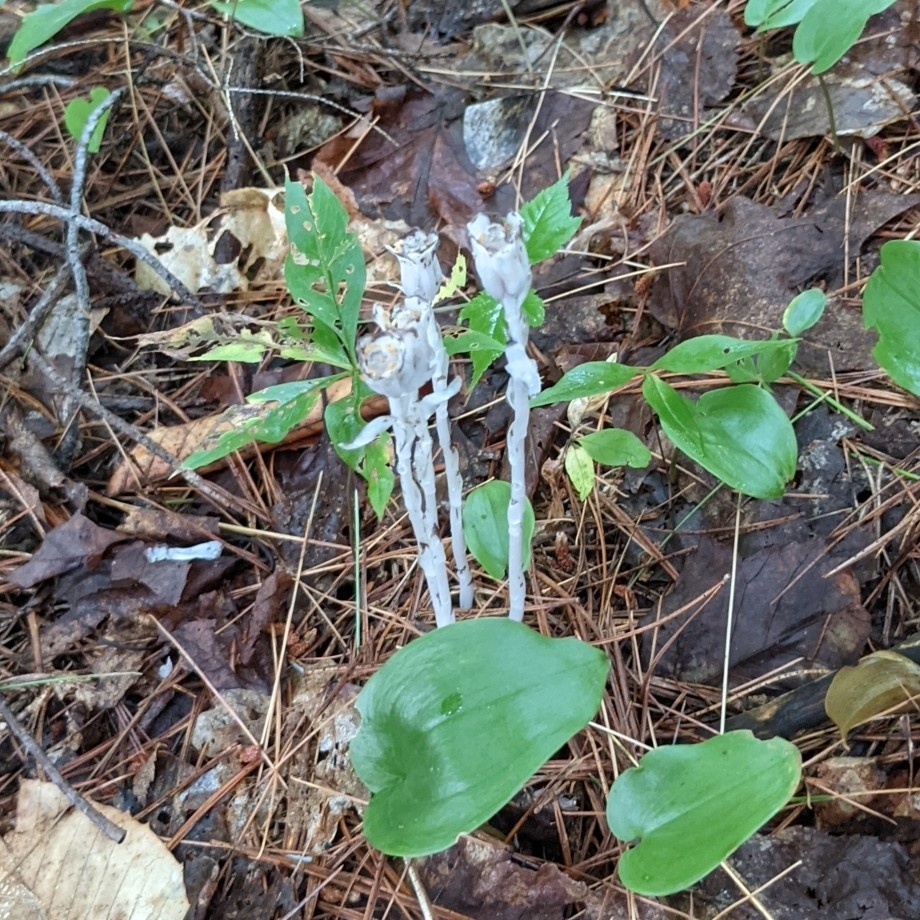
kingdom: Plantae
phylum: Tracheophyta
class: Magnoliopsida
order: Ericales
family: Ericaceae
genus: Monotropa
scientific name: Monotropa uniflora
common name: Convulsion root
